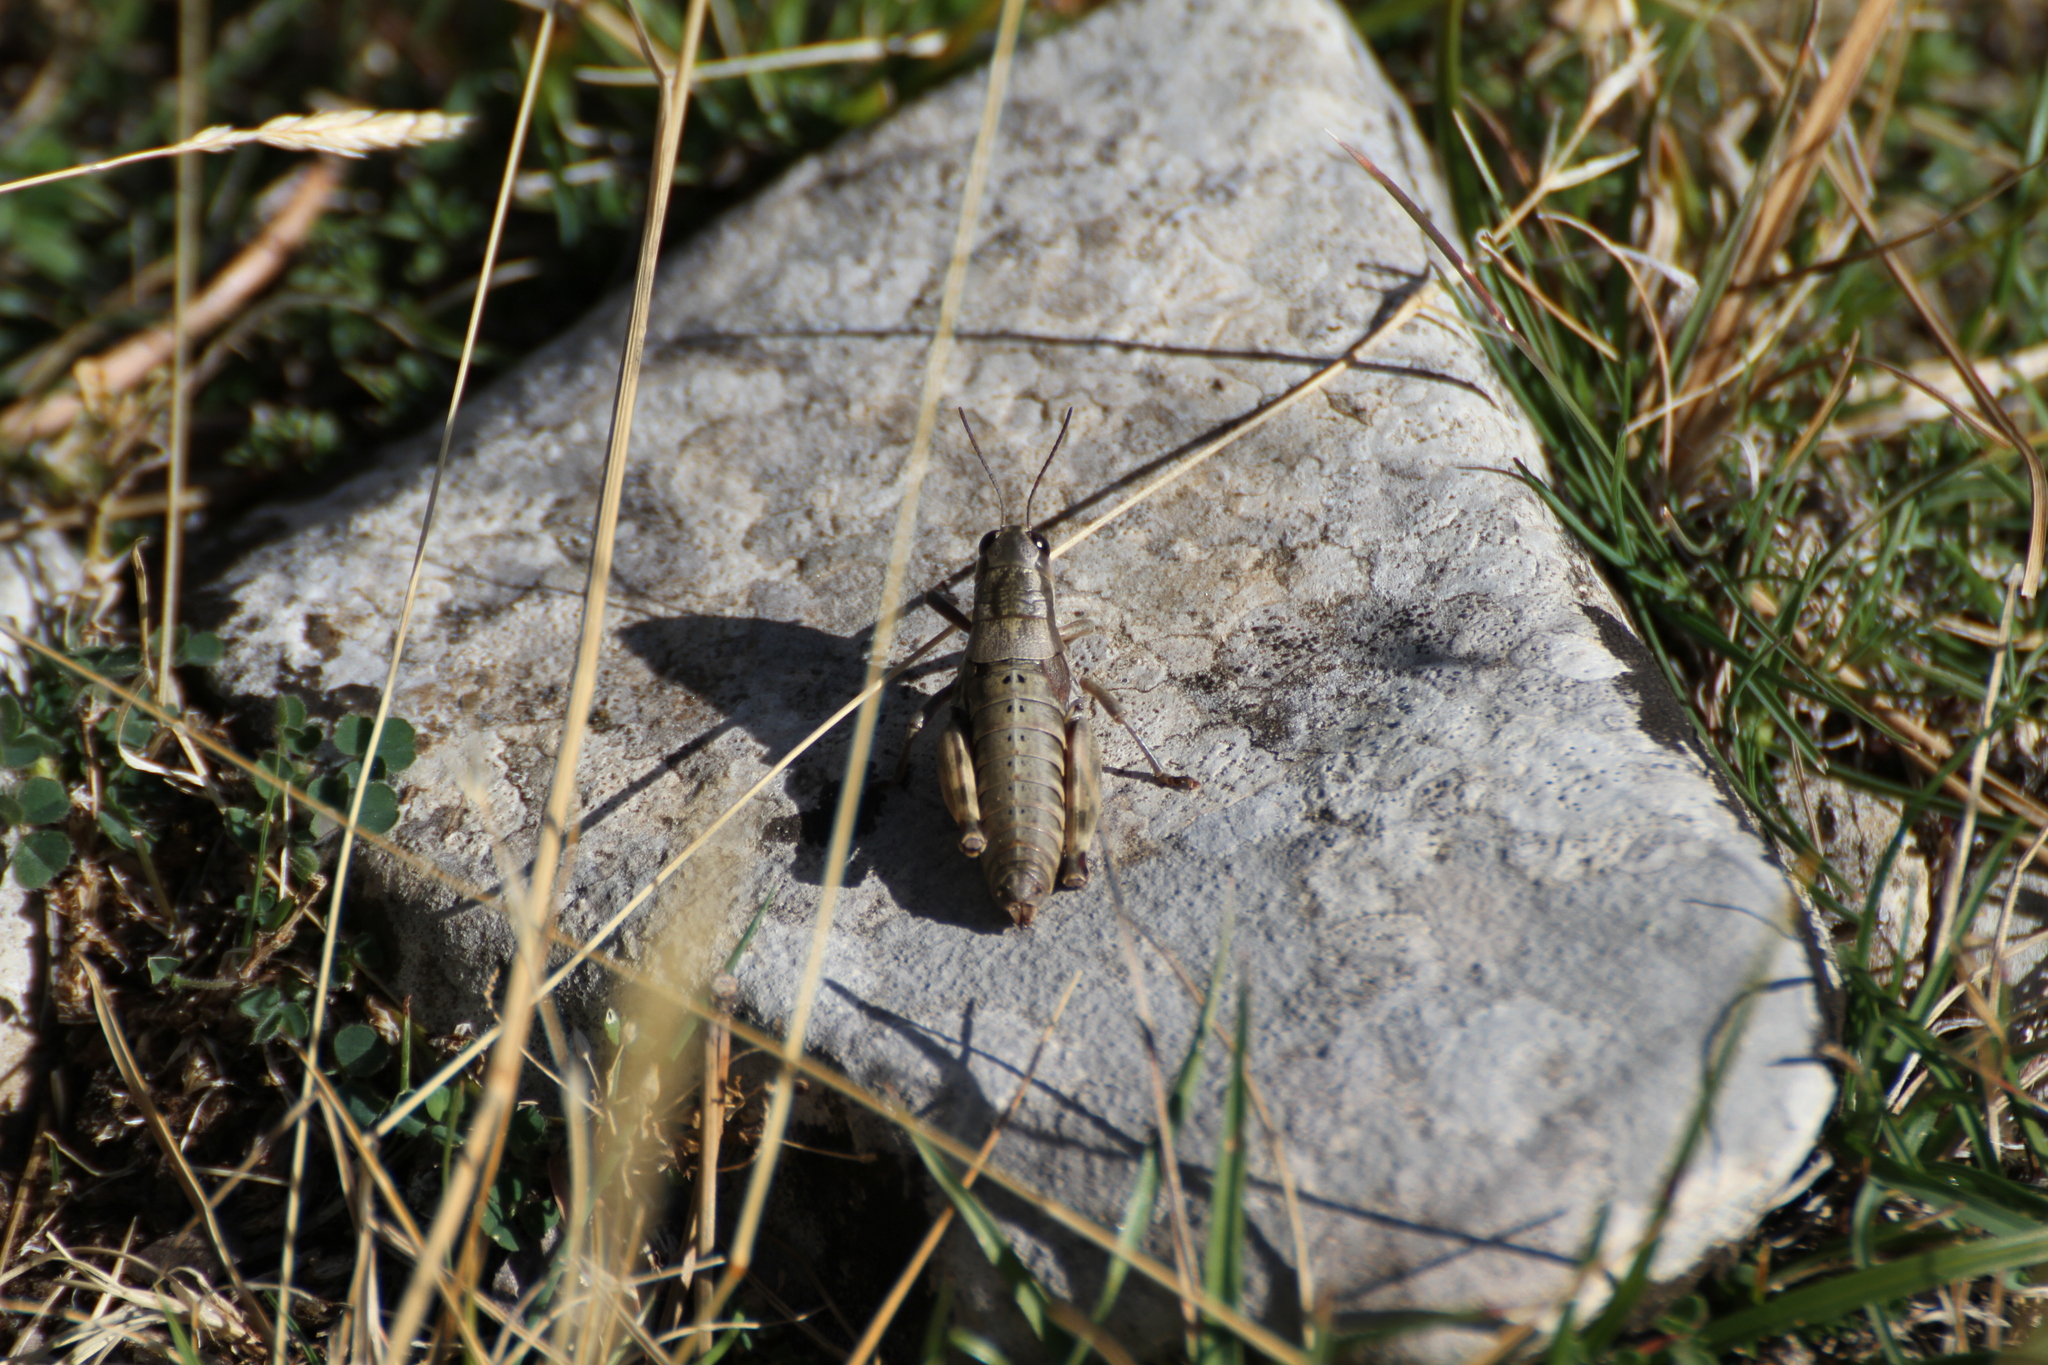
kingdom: Animalia
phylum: Arthropoda
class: Insecta
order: Orthoptera
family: Acrididae
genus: Podisma
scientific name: Podisma amedegnatoae
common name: Ventoux mountain grasshopper
